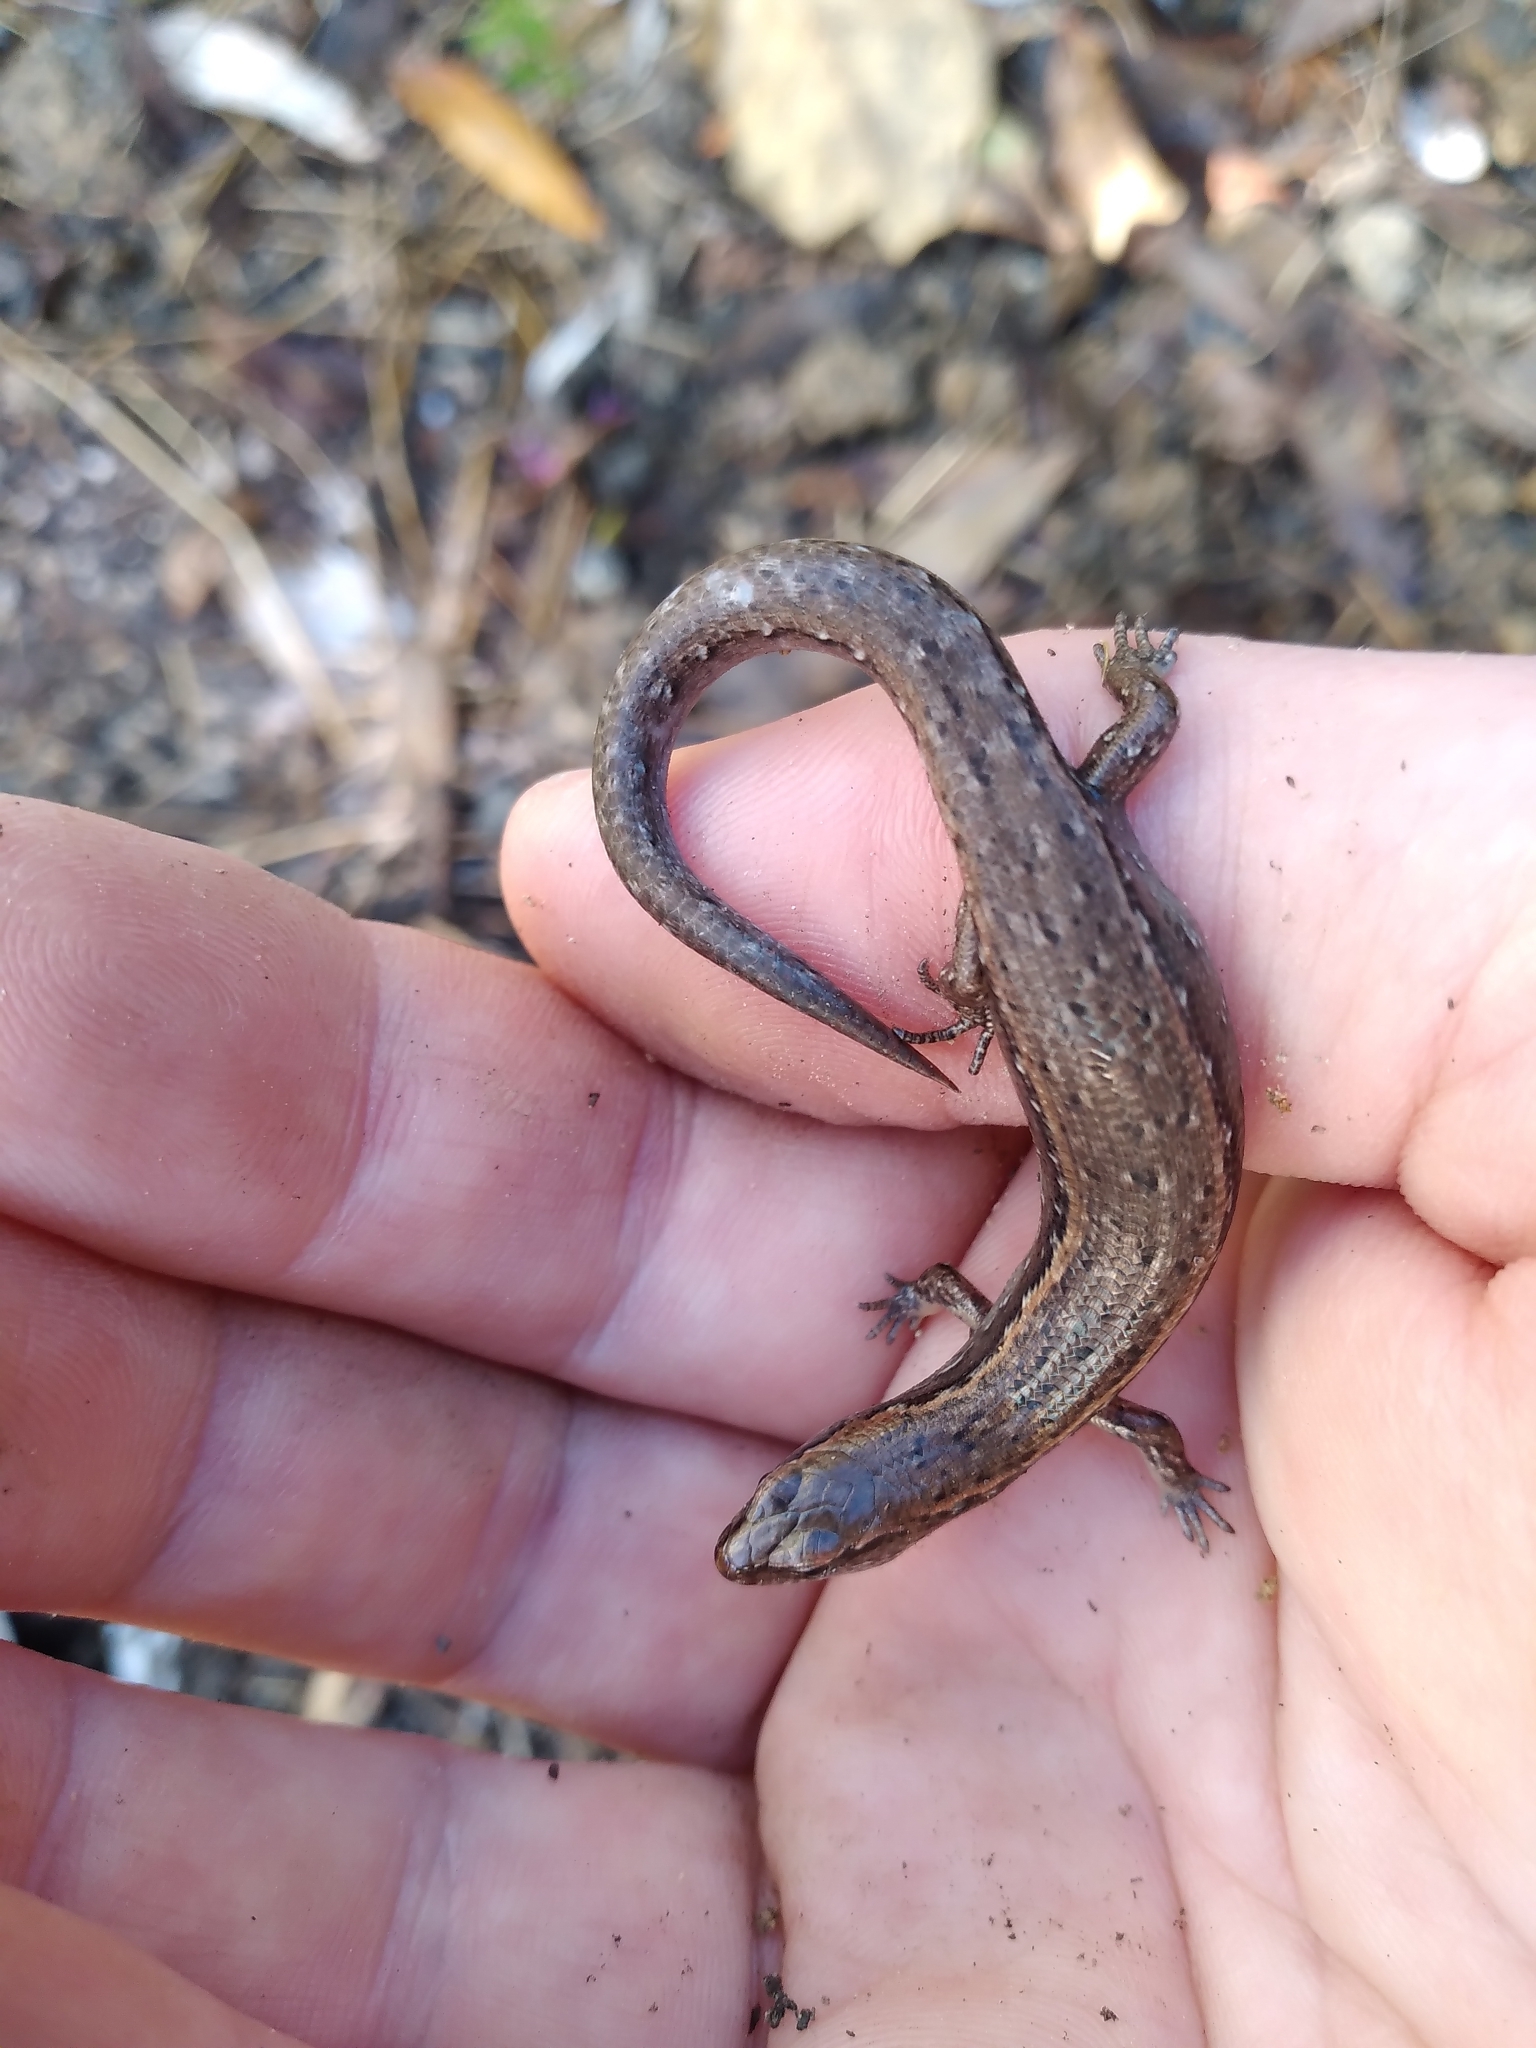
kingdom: Animalia
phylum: Chordata
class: Squamata
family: Scincidae
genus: Oligosoma
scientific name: Oligosoma aeneum
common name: Copper skink
